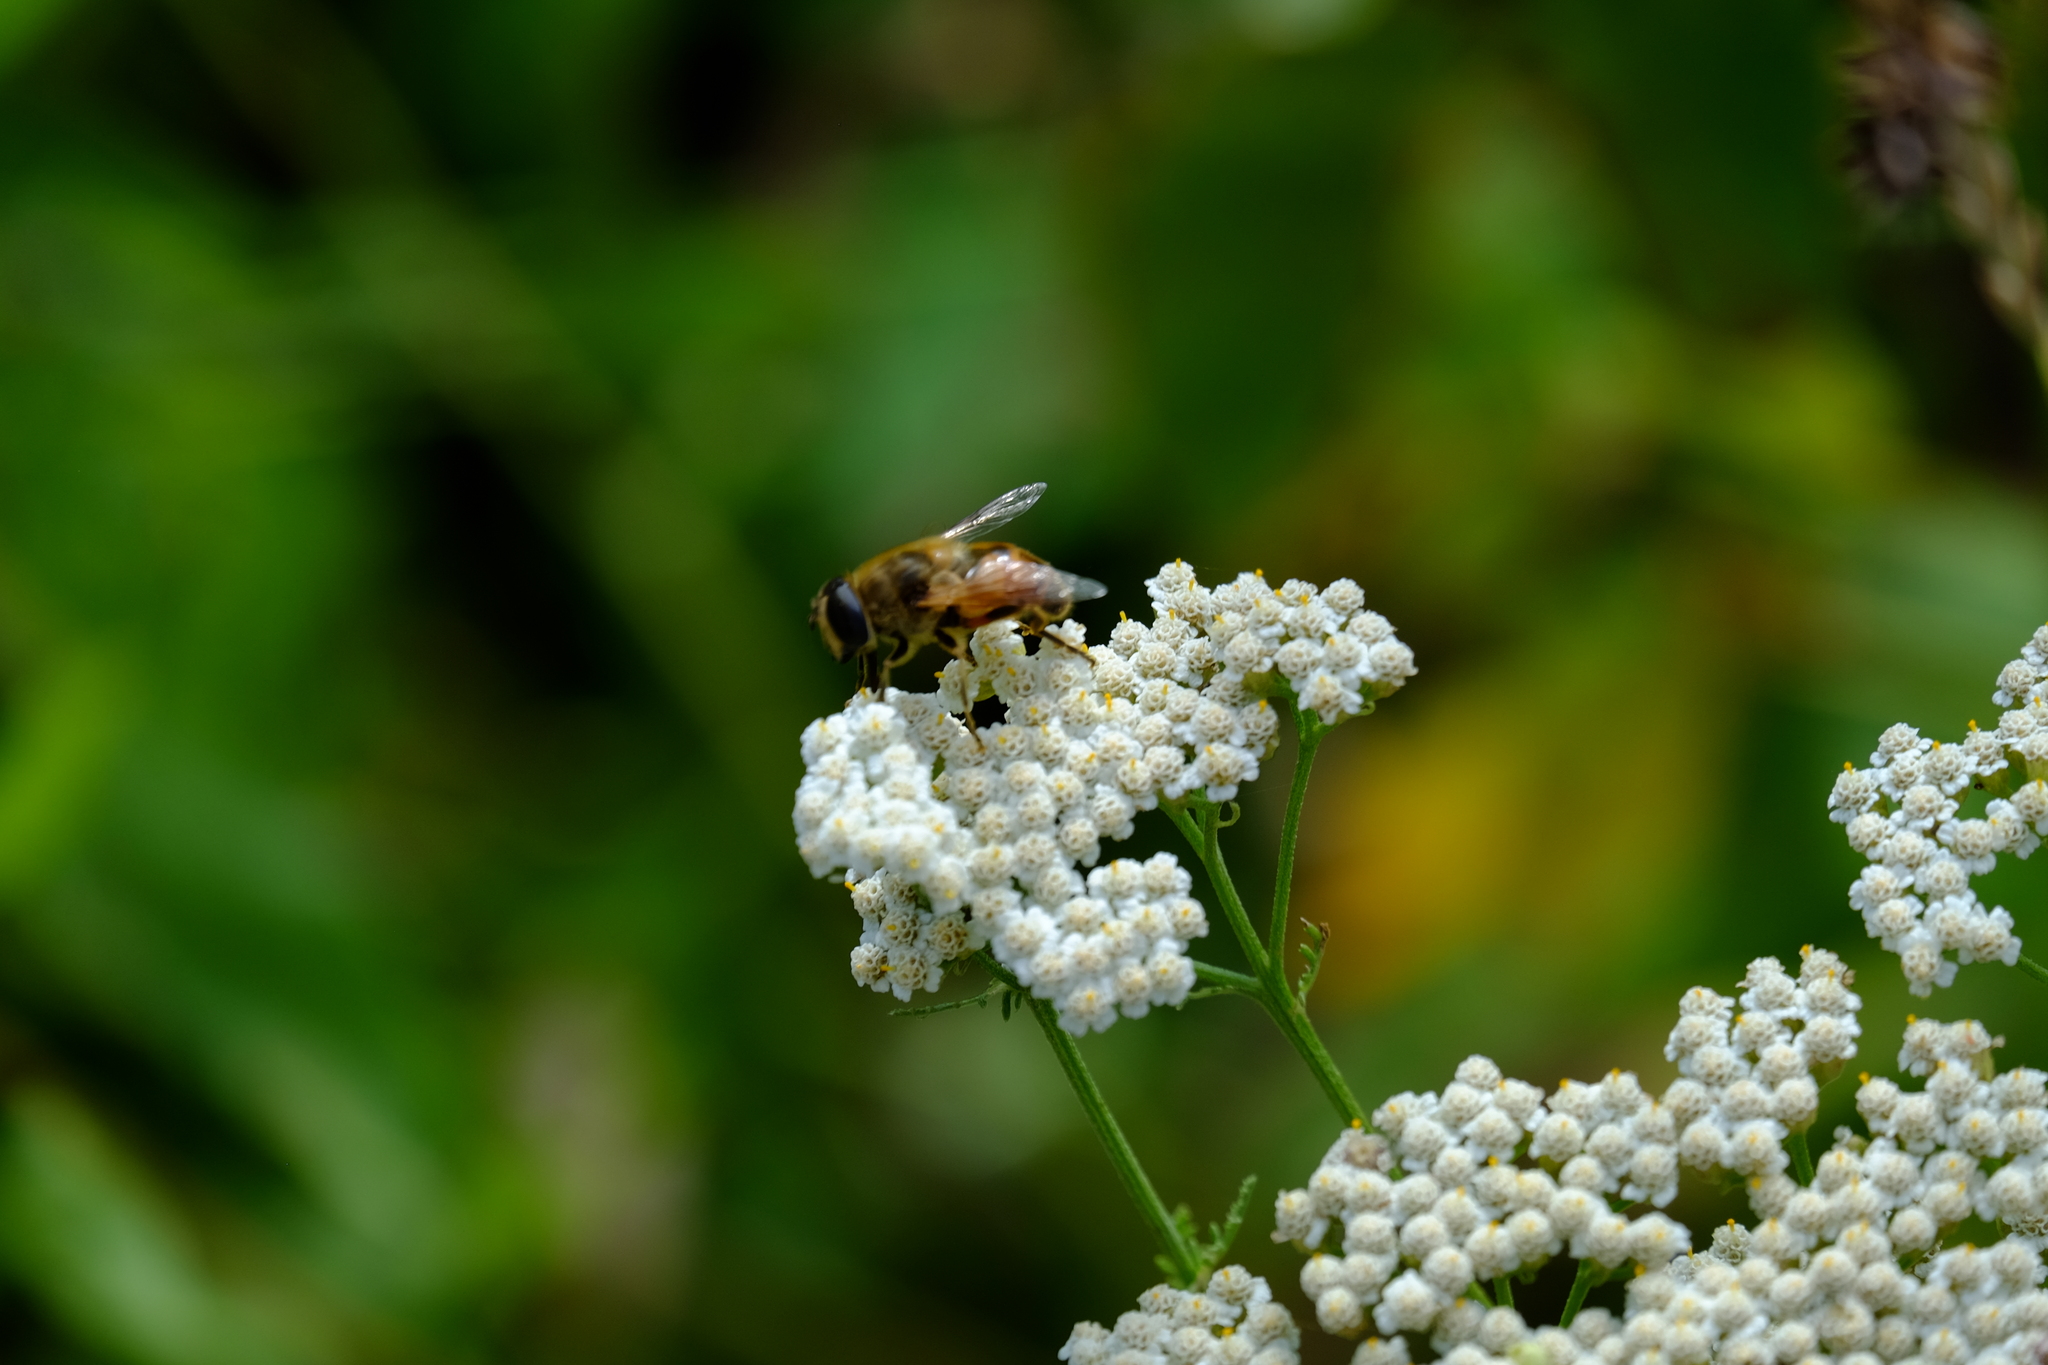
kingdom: Animalia
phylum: Arthropoda
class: Insecta
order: Diptera
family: Syrphidae
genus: Eristalis
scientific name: Eristalis tenax
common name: Drone fly
